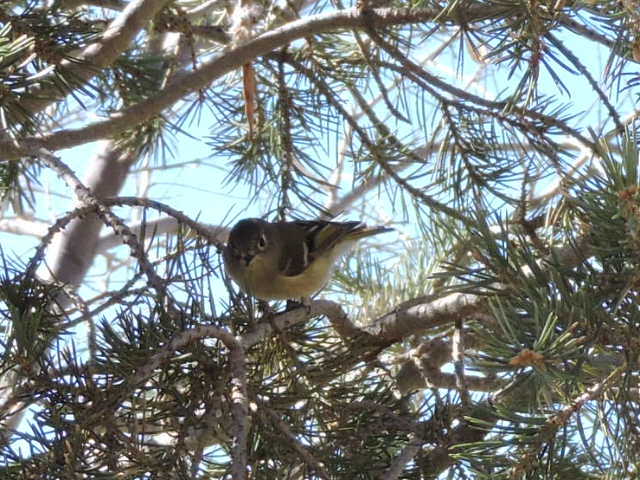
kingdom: Animalia
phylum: Chordata
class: Aves
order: Passeriformes
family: Regulidae
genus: Regulus
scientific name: Regulus calendula
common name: Ruby-crowned kinglet
